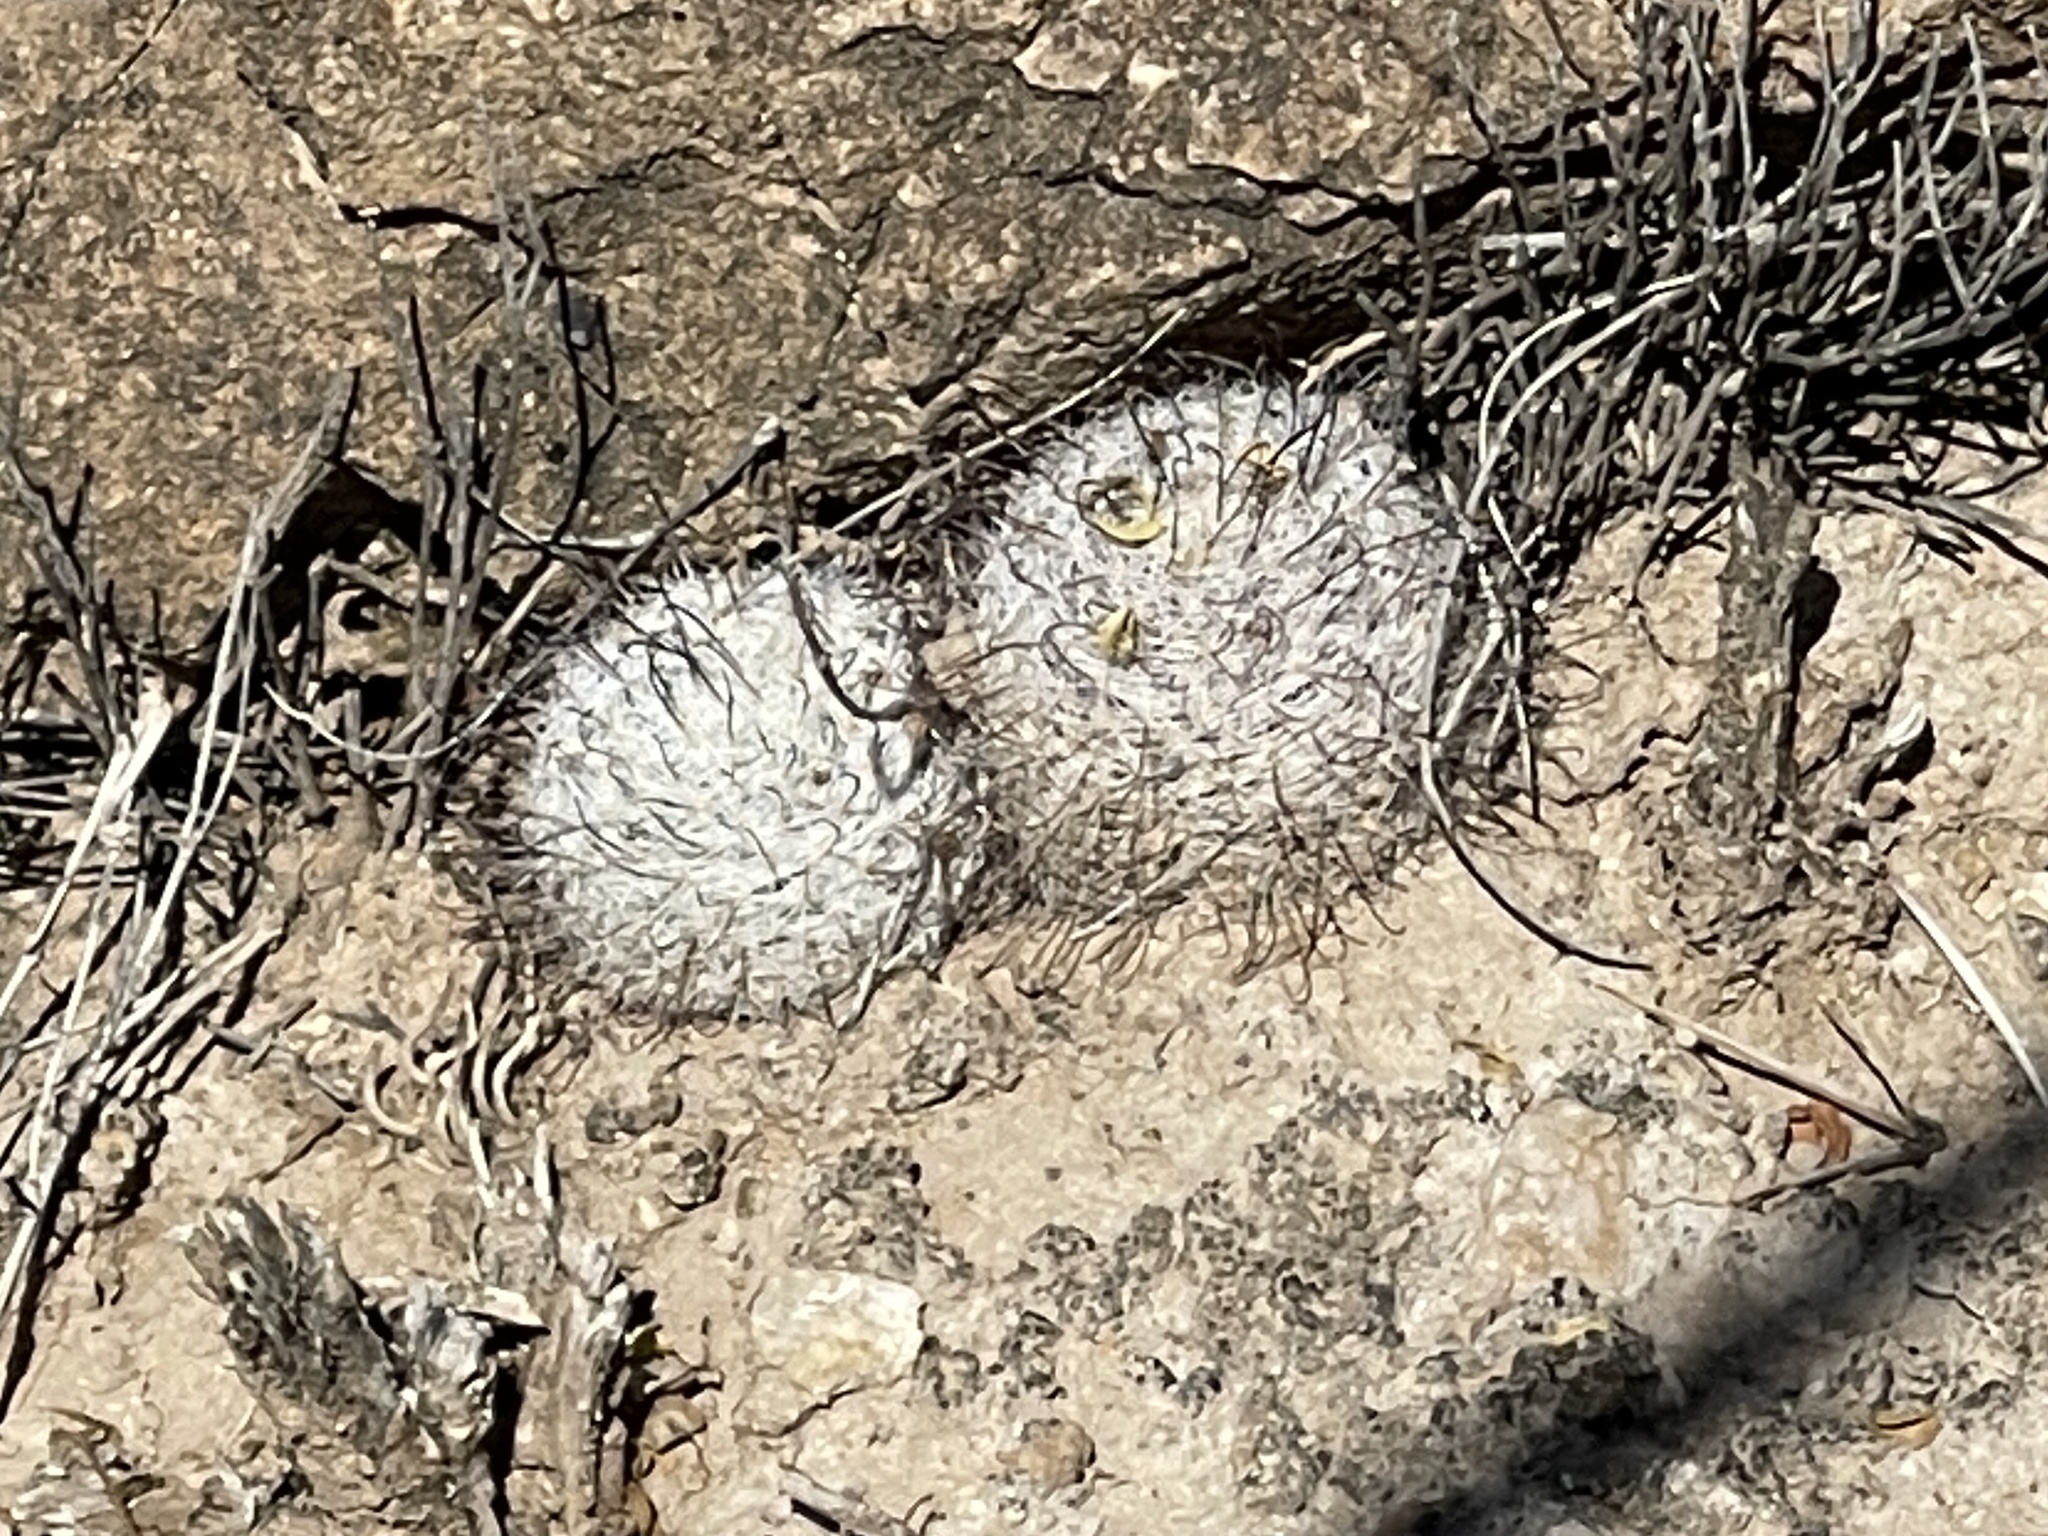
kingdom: Plantae
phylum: Tracheophyta
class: Magnoliopsida
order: Caryophyllales
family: Cactaceae
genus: Cochemiea
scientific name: Cochemiea grahamii
